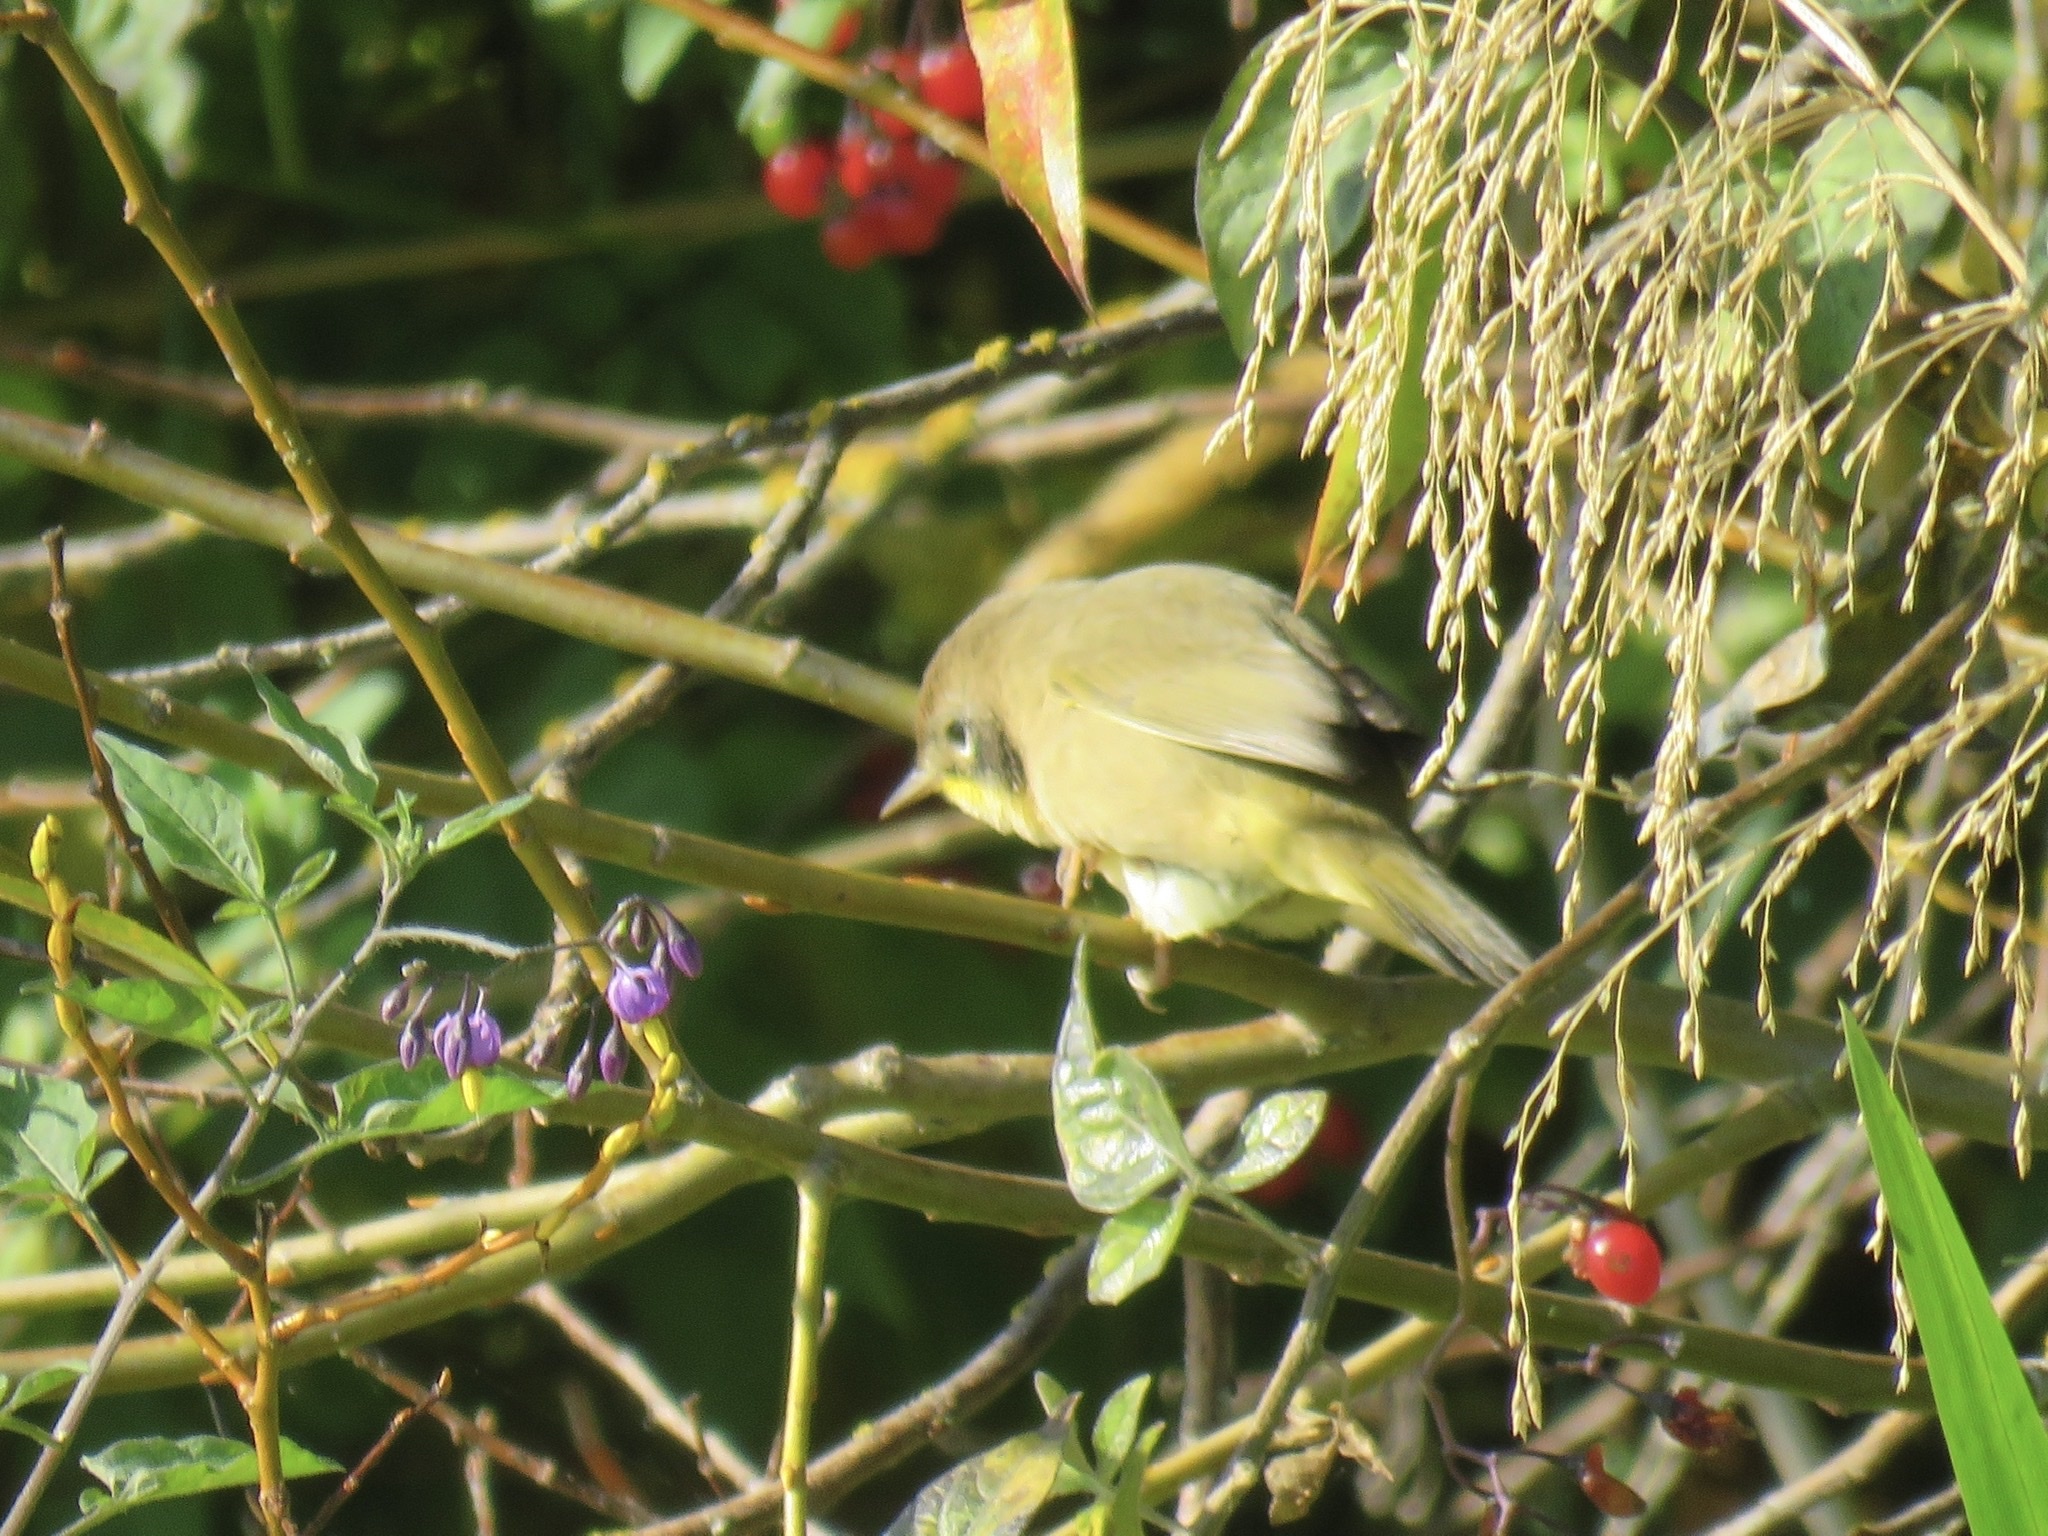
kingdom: Animalia
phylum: Chordata
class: Aves
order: Passeriformes
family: Parulidae
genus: Geothlypis
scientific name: Geothlypis trichas
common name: Common yellowthroat
